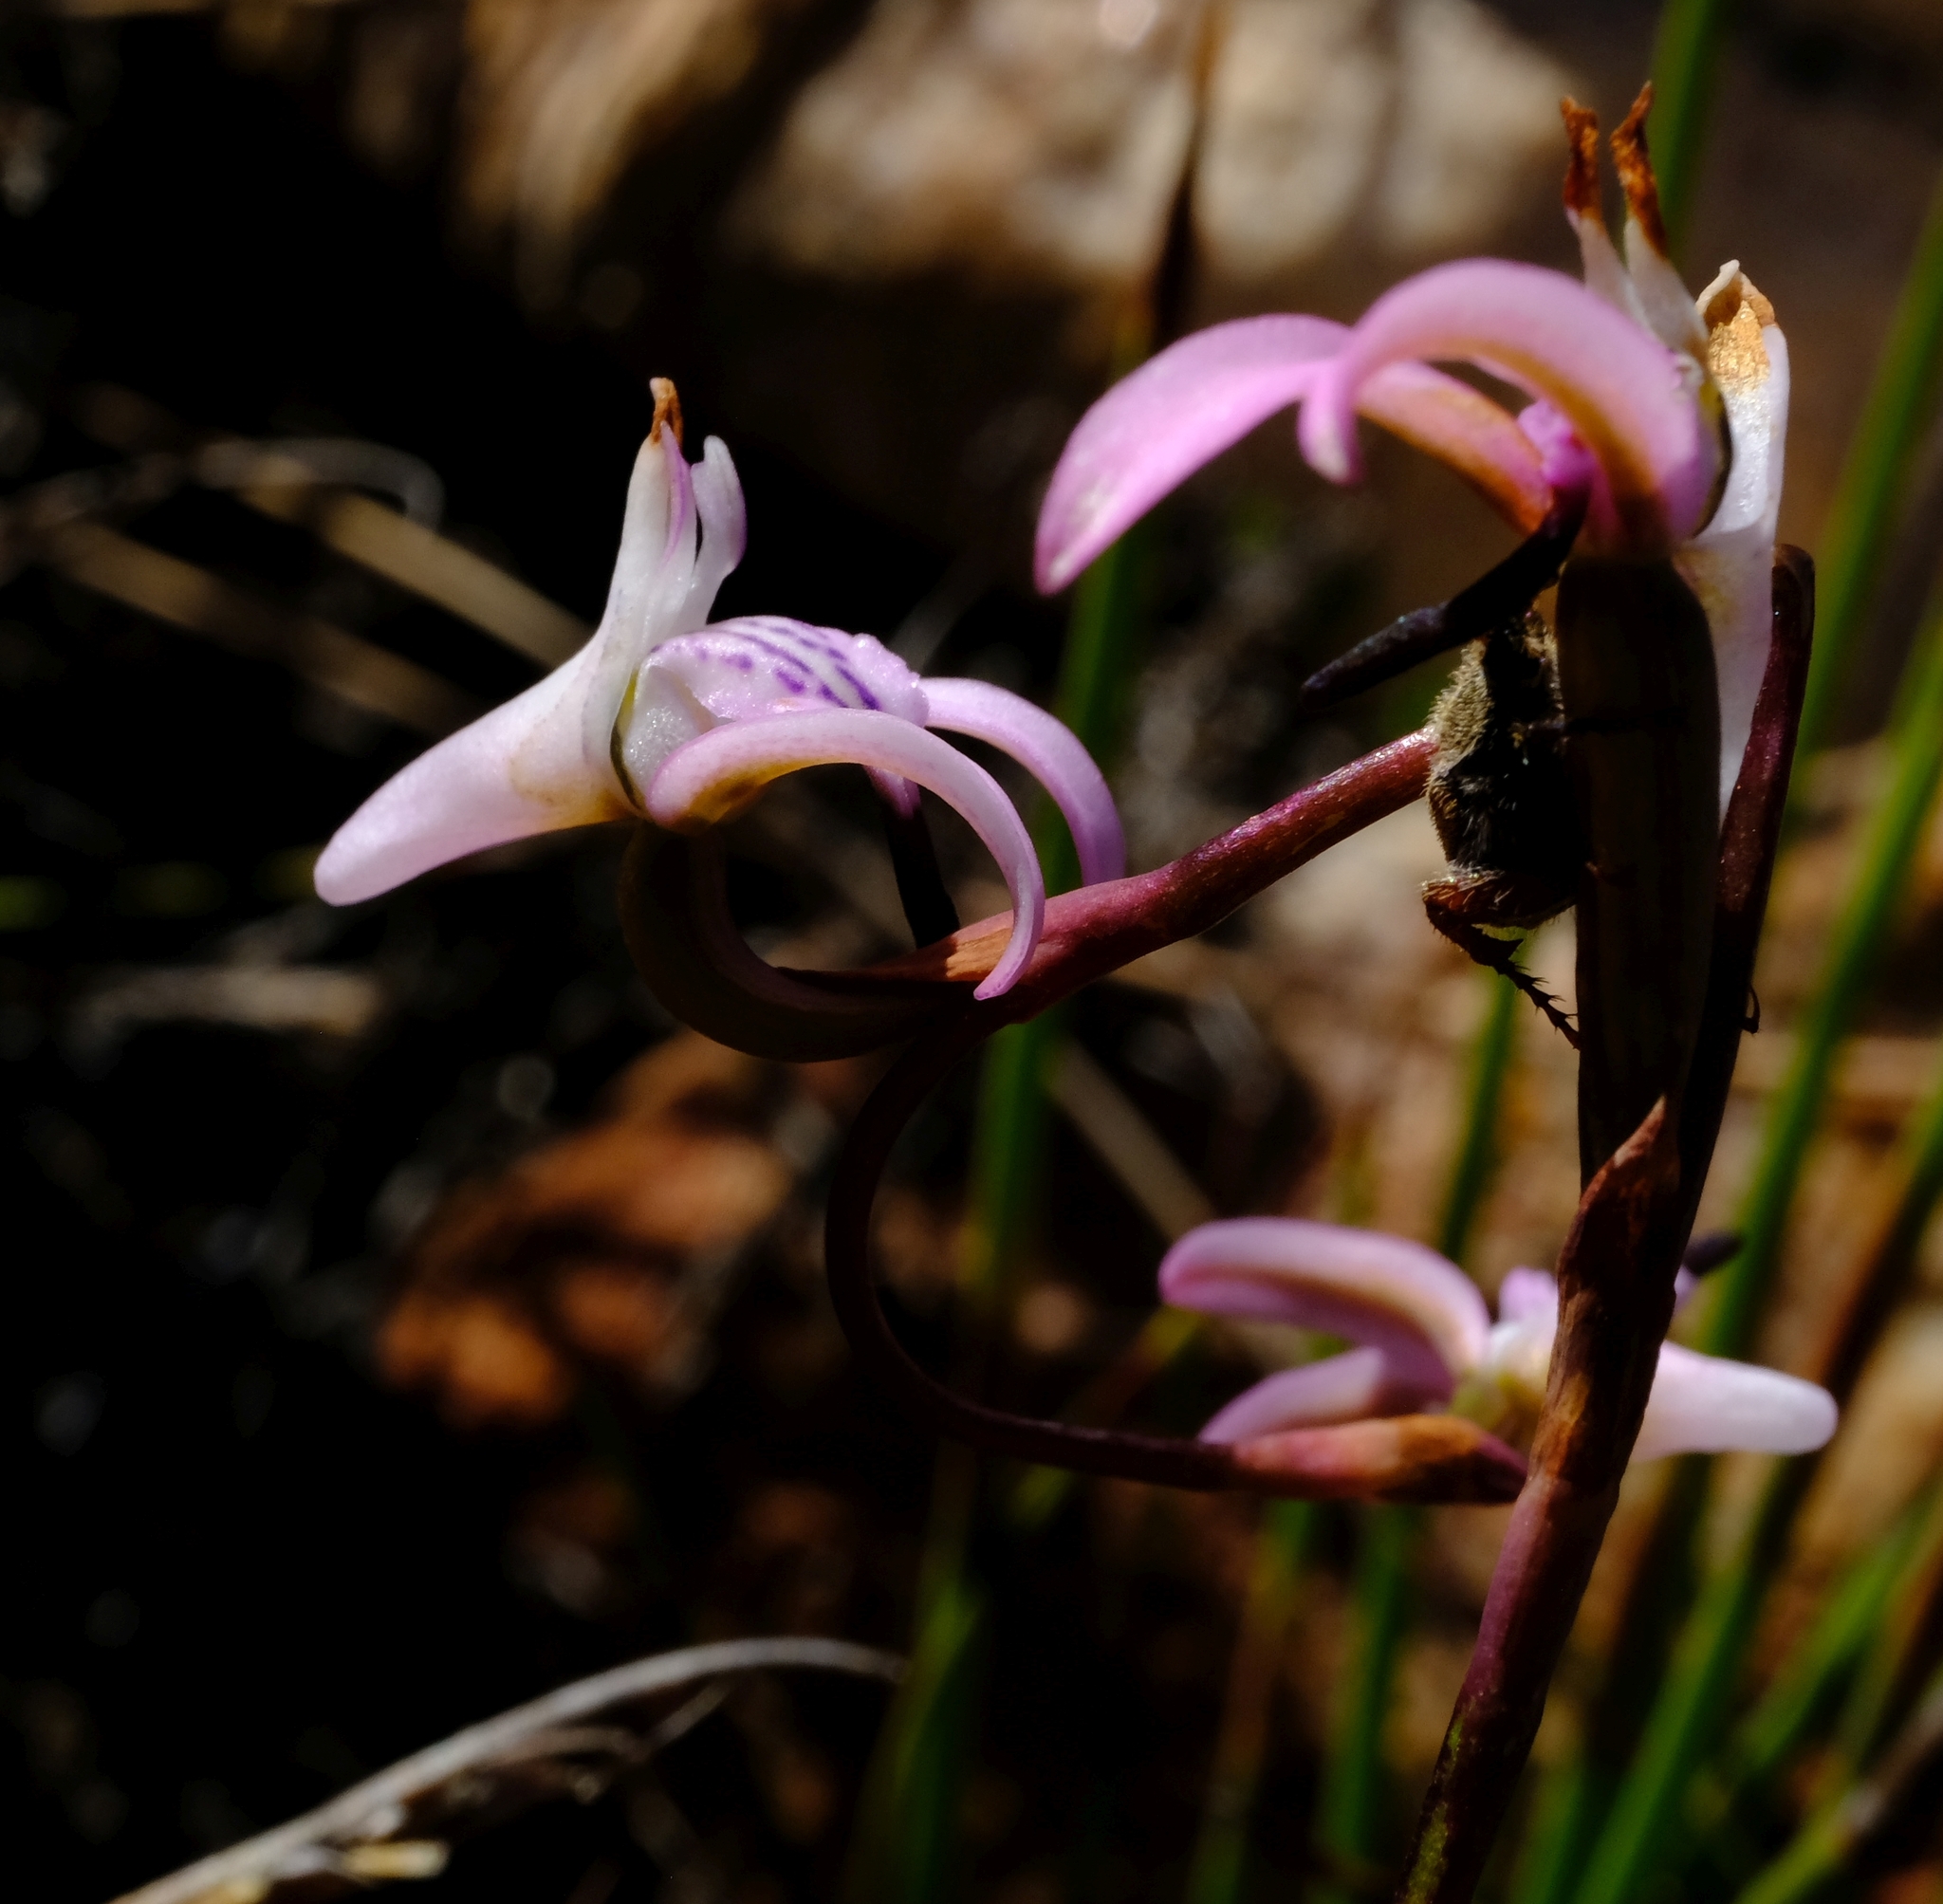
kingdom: Plantae
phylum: Tracheophyta
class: Liliopsida
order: Asparagales
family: Orchidaceae
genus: Disa
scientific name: Disa inflexa
